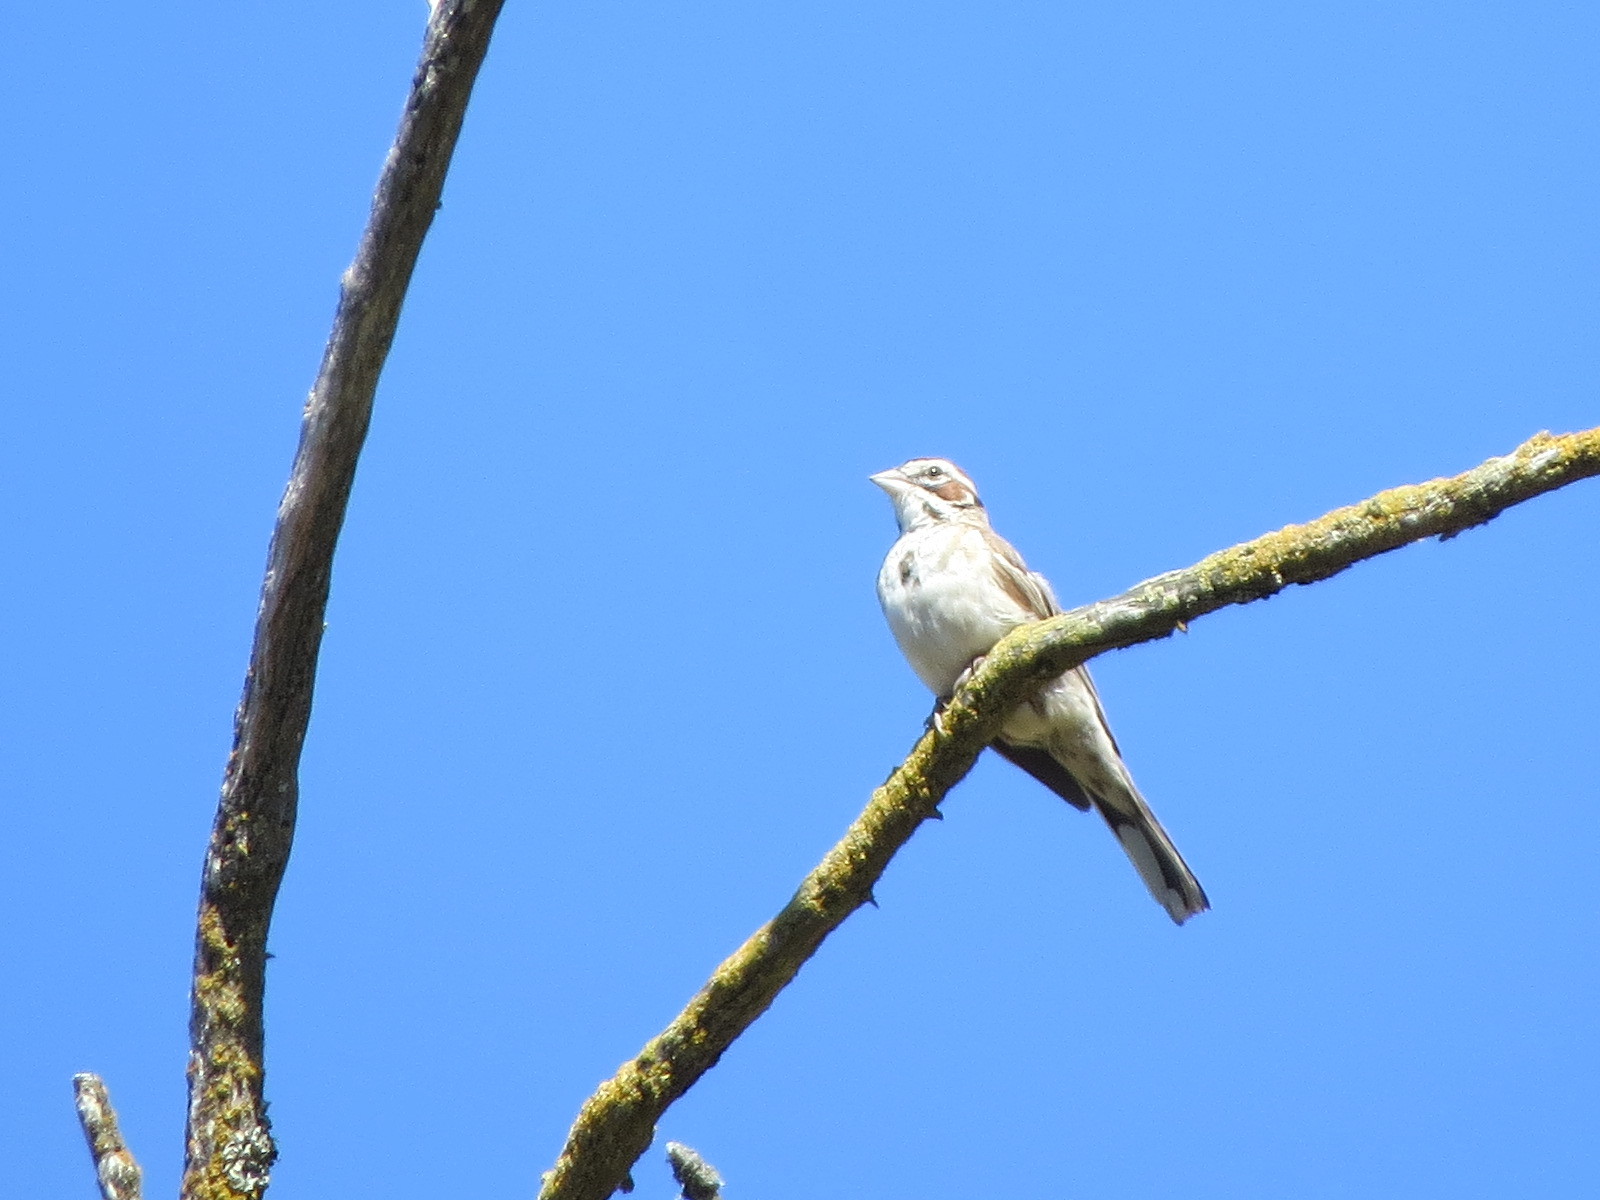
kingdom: Animalia
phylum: Chordata
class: Aves
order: Passeriformes
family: Passerellidae
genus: Chondestes
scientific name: Chondestes grammacus
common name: Lark sparrow
